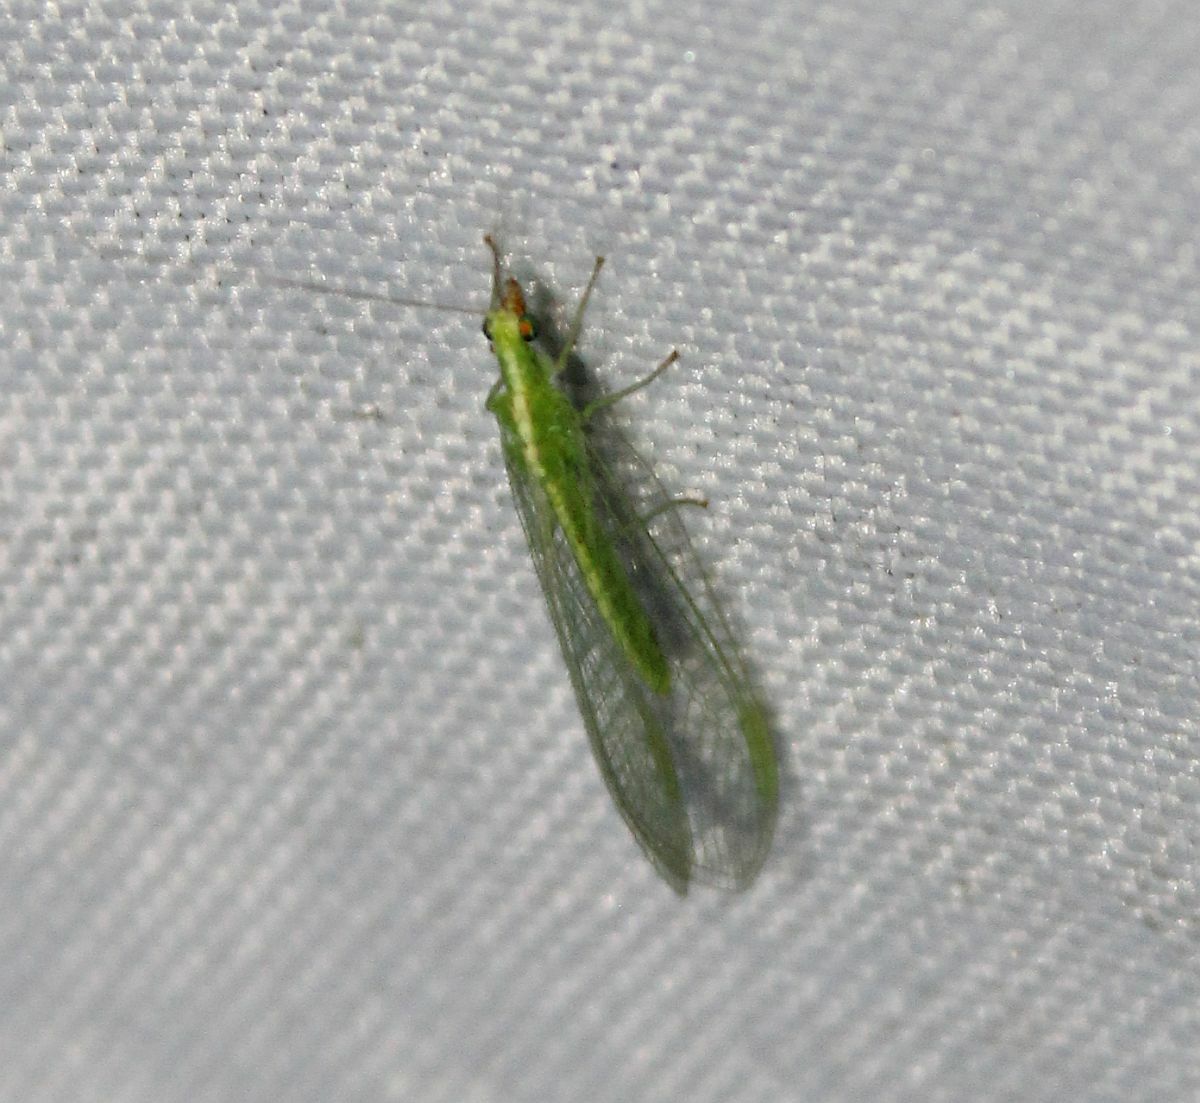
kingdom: Animalia
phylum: Arthropoda
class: Insecta
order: Neuroptera
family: Chrysopidae
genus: Chrysoperla
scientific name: Chrysoperla
